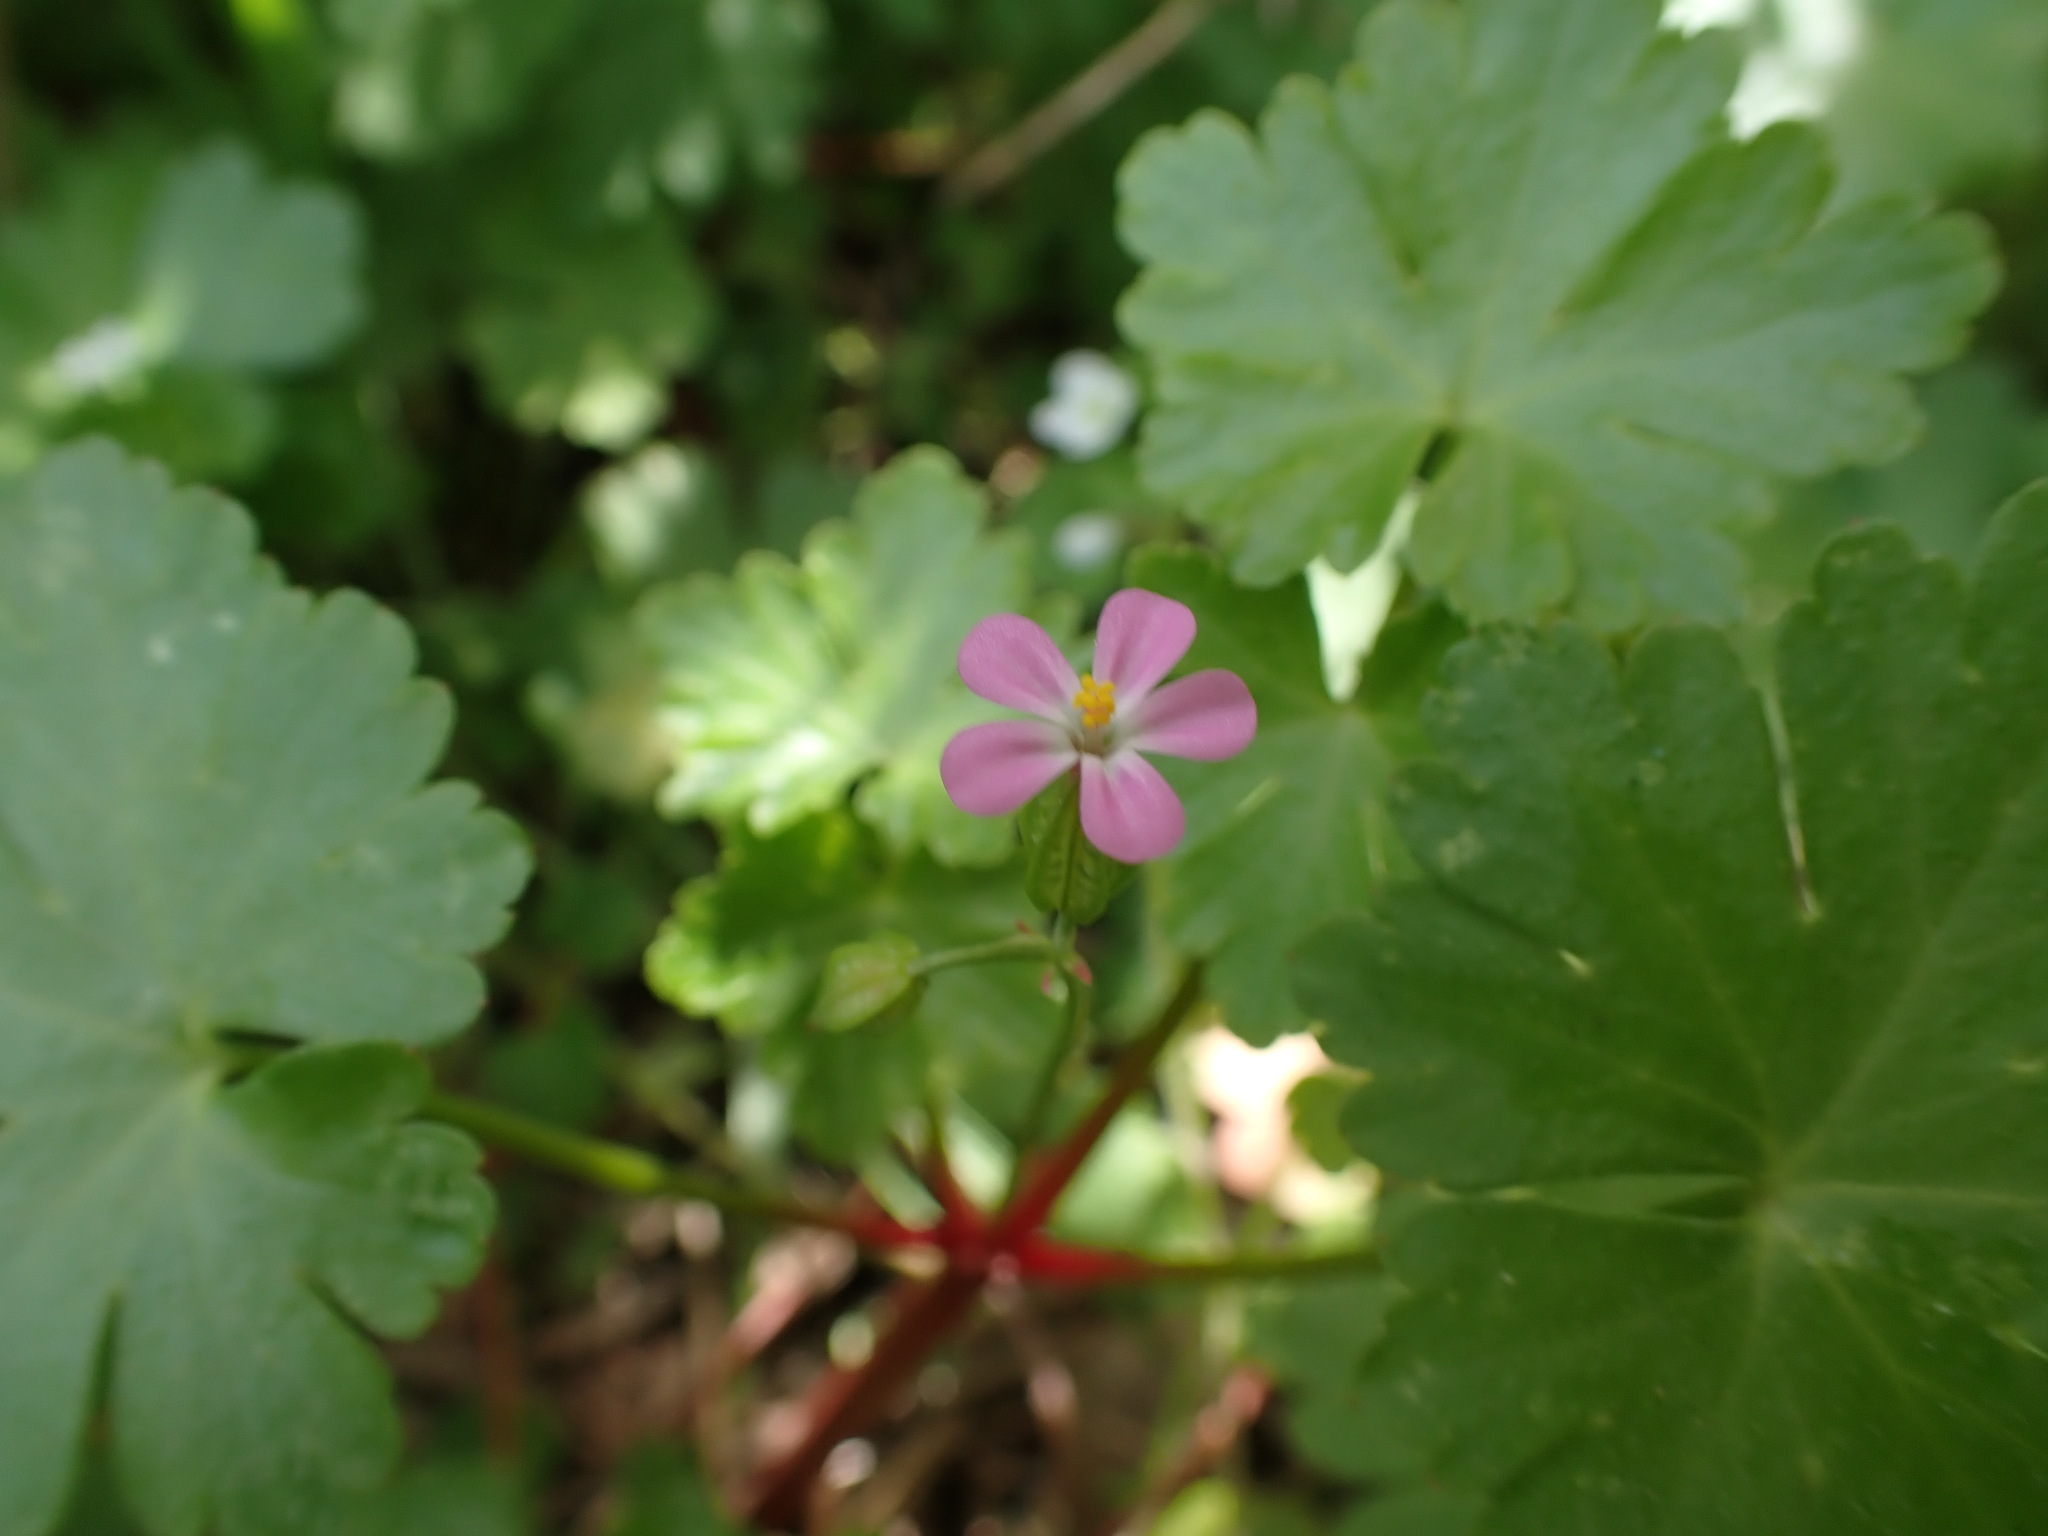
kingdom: Plantae
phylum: Tracheophyta
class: Magnoliopsida
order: Geraniales
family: Geraniaceae
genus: Geranium
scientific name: Geranium lucidum
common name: Shining crane's-bill
